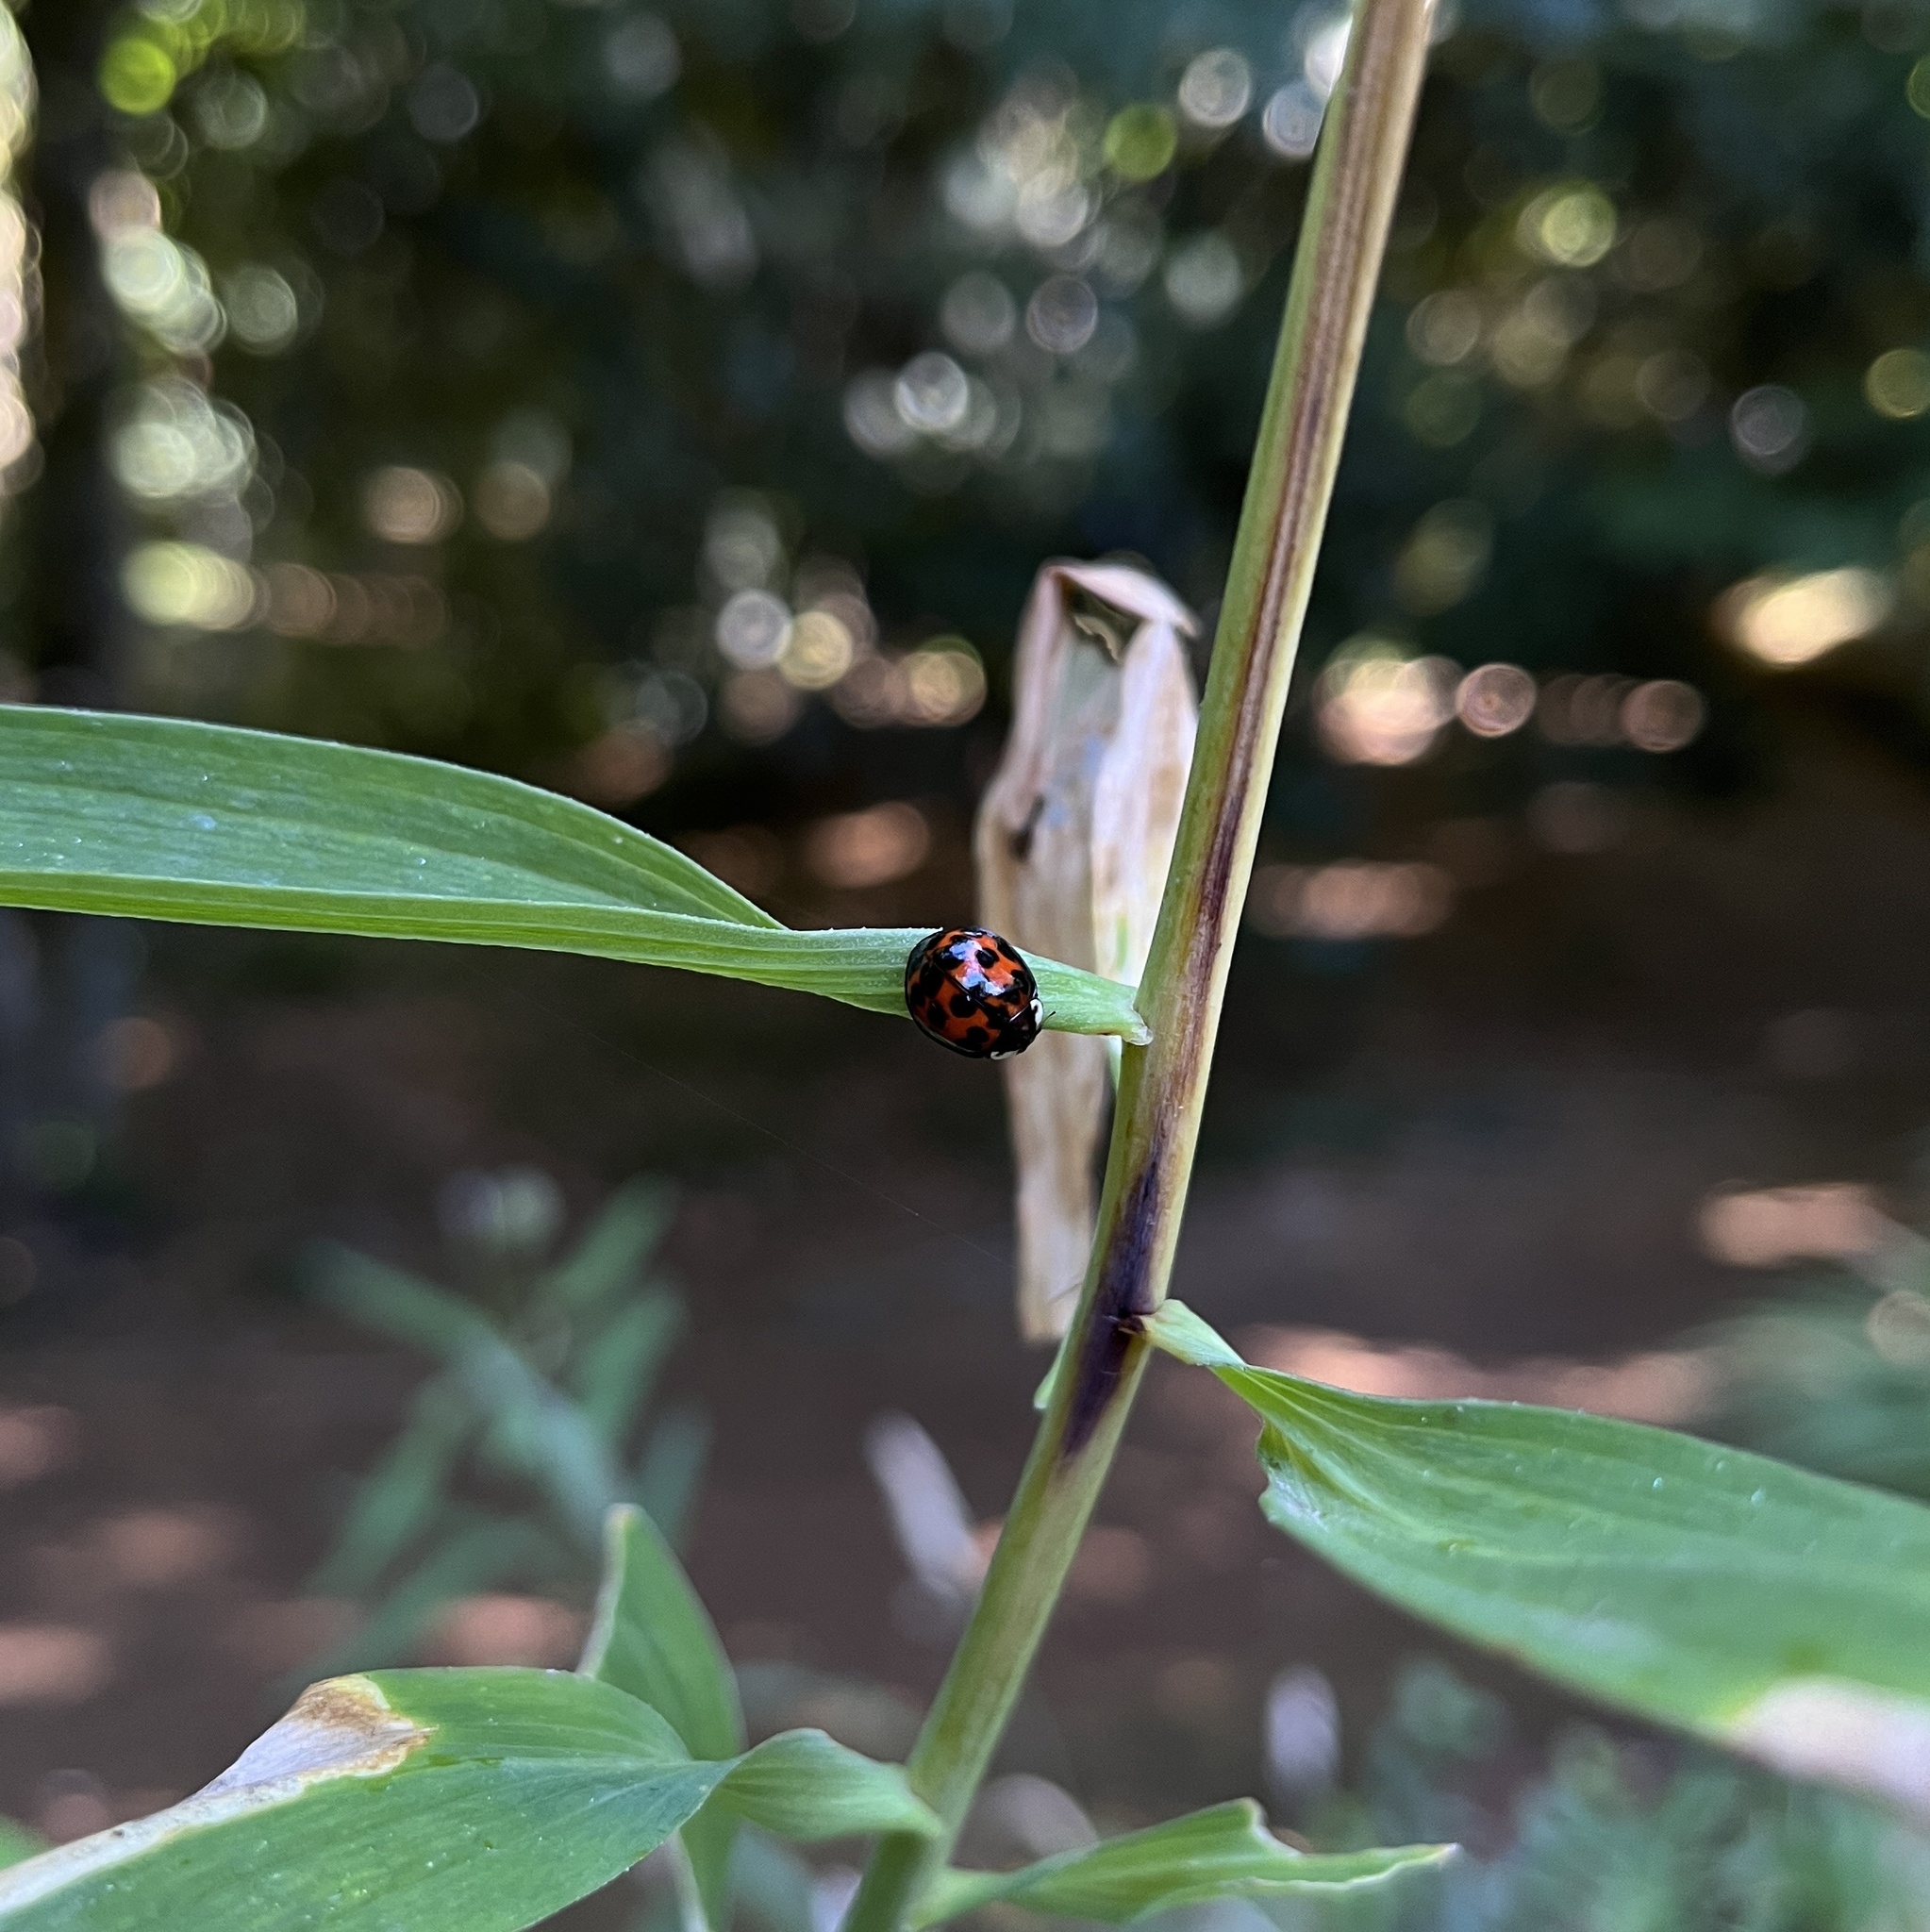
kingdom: Animalia
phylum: Arthropoda
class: Insecta
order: Coleoptera
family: Coccinellidae
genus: Harmonia
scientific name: Harmonia axyridis
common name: Harlequin ladybird
